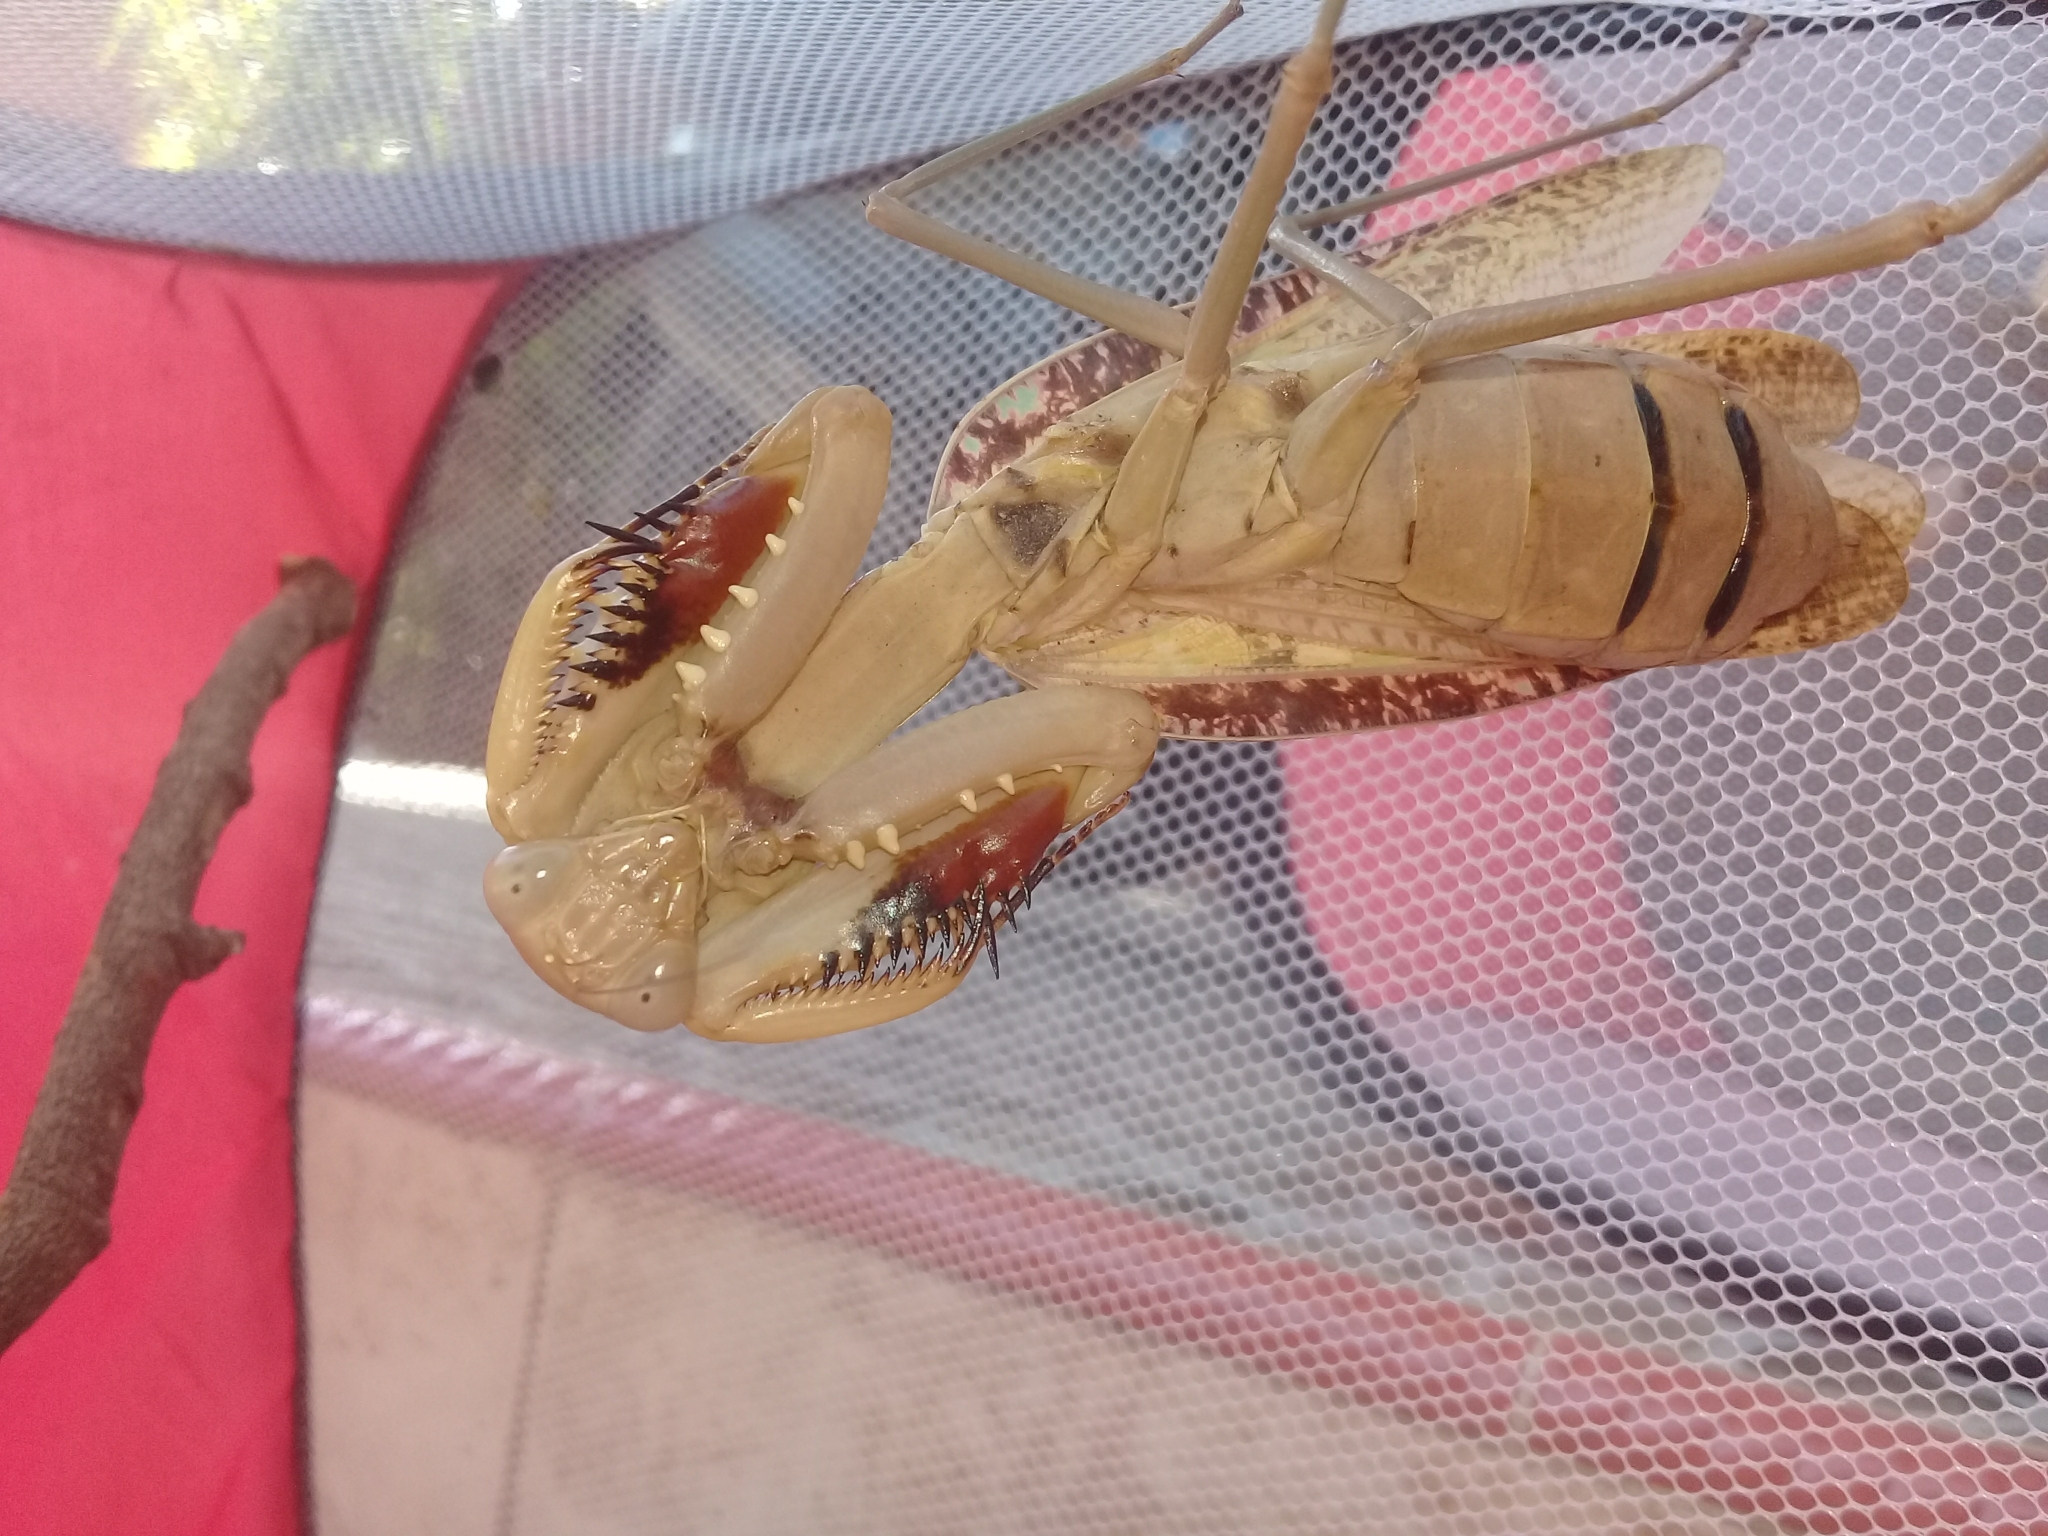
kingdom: Animalia
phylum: Arthropoda
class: Insecta
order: Mantodea
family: Mantidae
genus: Hierodula
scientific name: Hierodula timorensis
